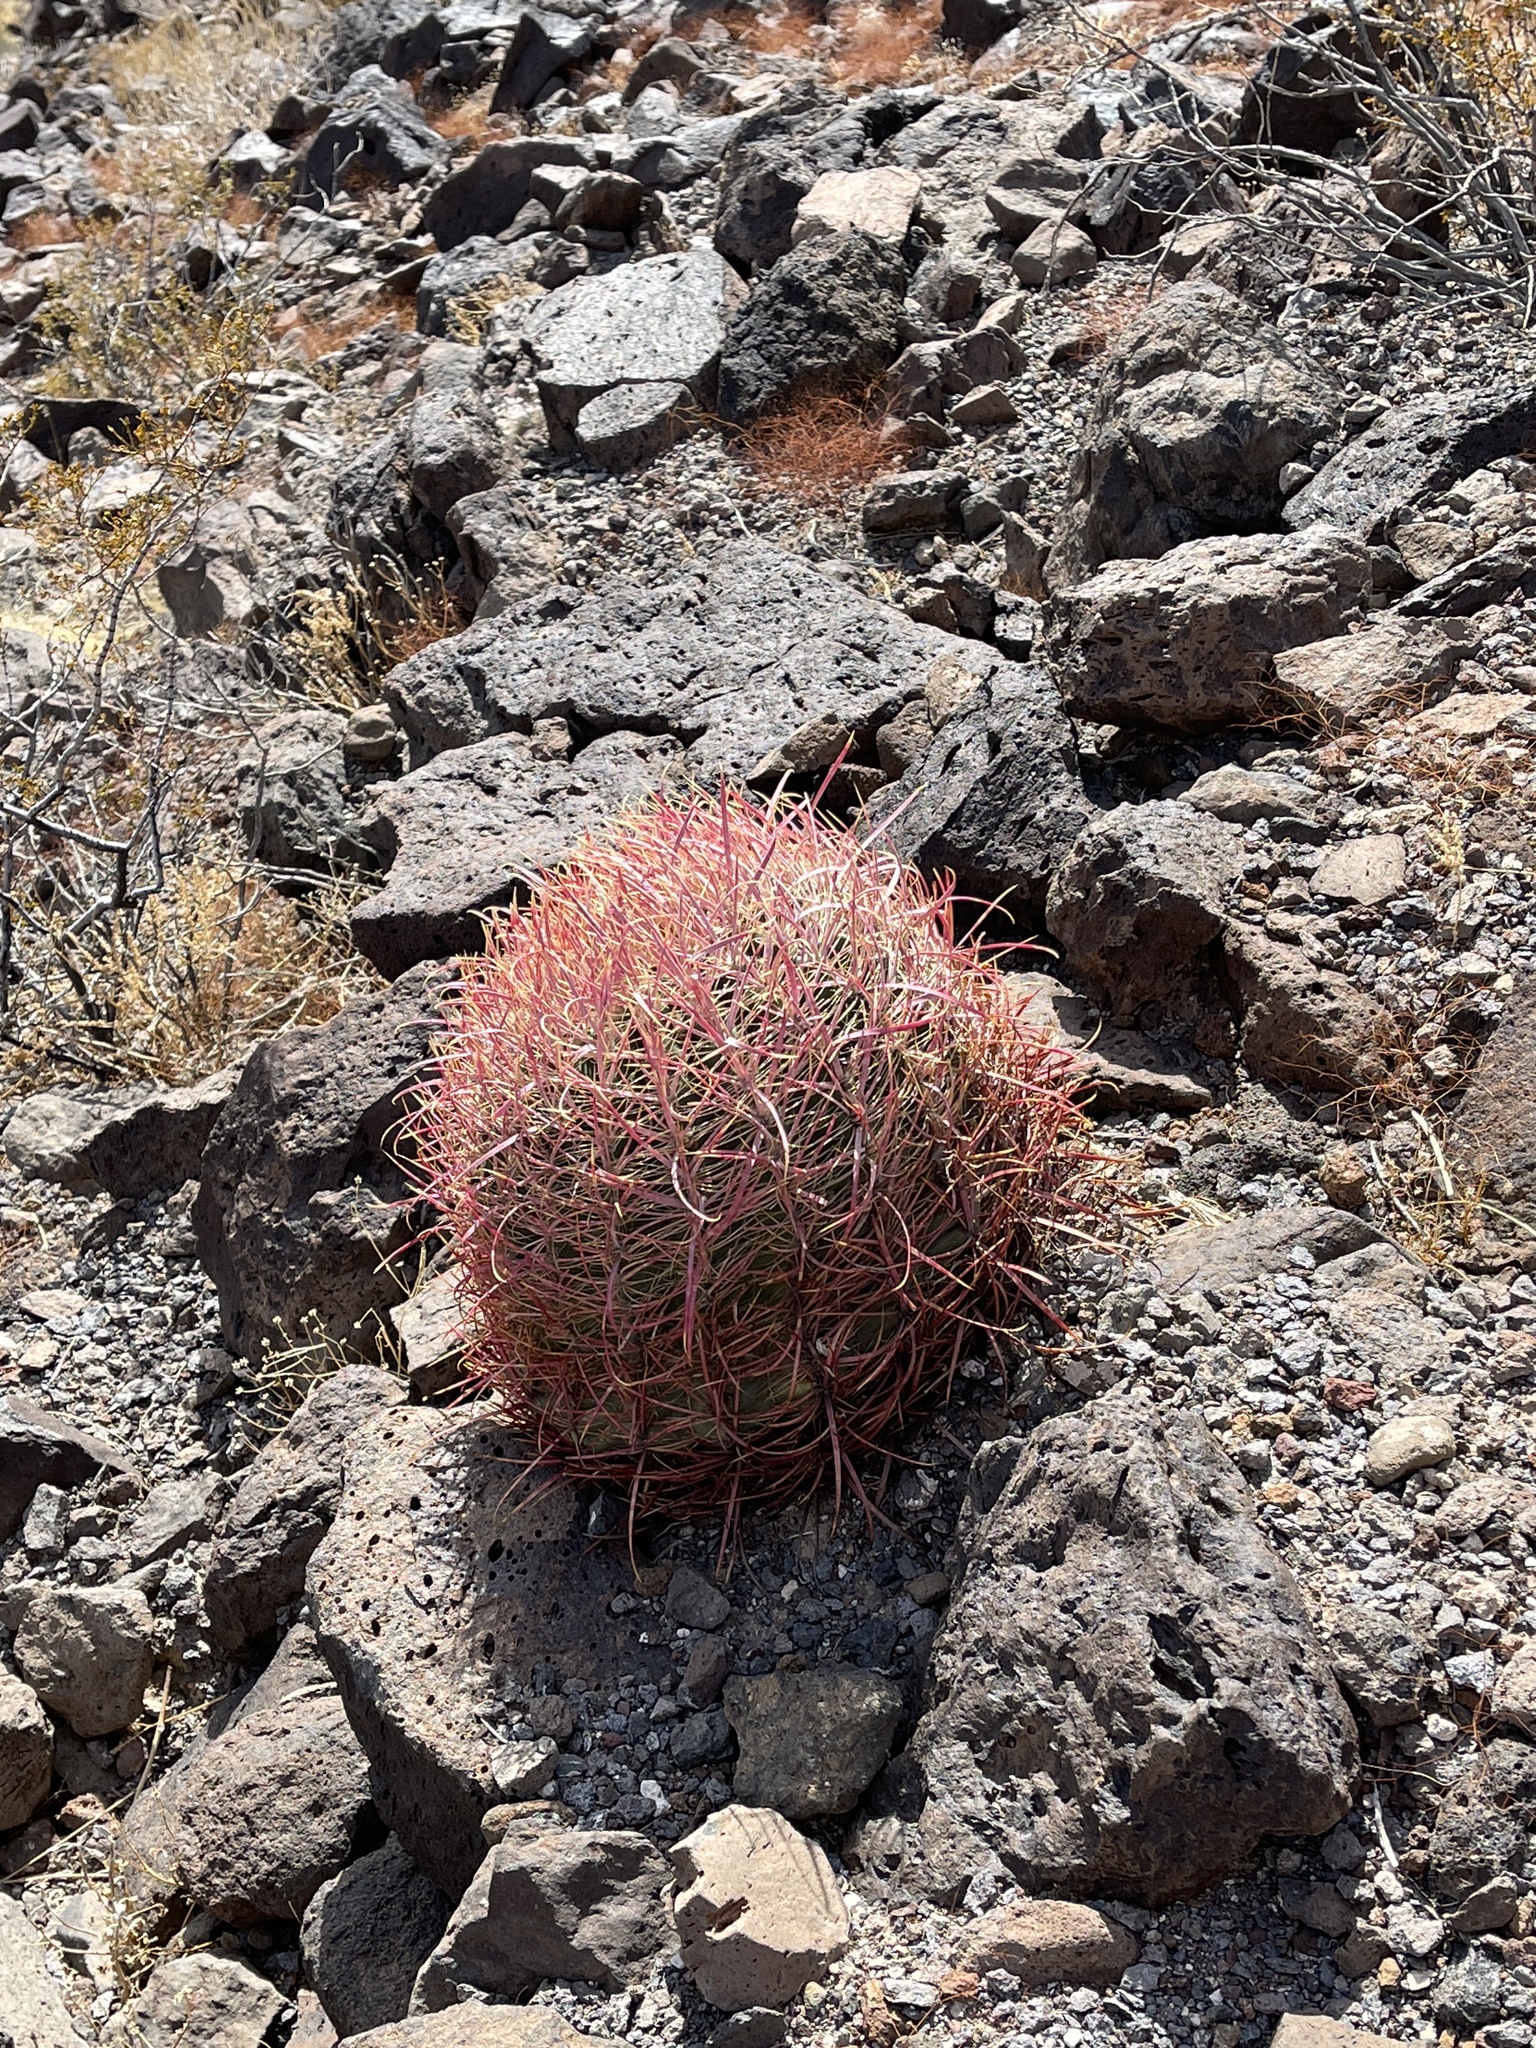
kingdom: Plantae
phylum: Tracheophyta
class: Magnoliopsida
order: Caryophyllales
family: Cactaceae
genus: Ferocactus
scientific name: Ferocactus cylindraceus
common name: California barrel cactus
